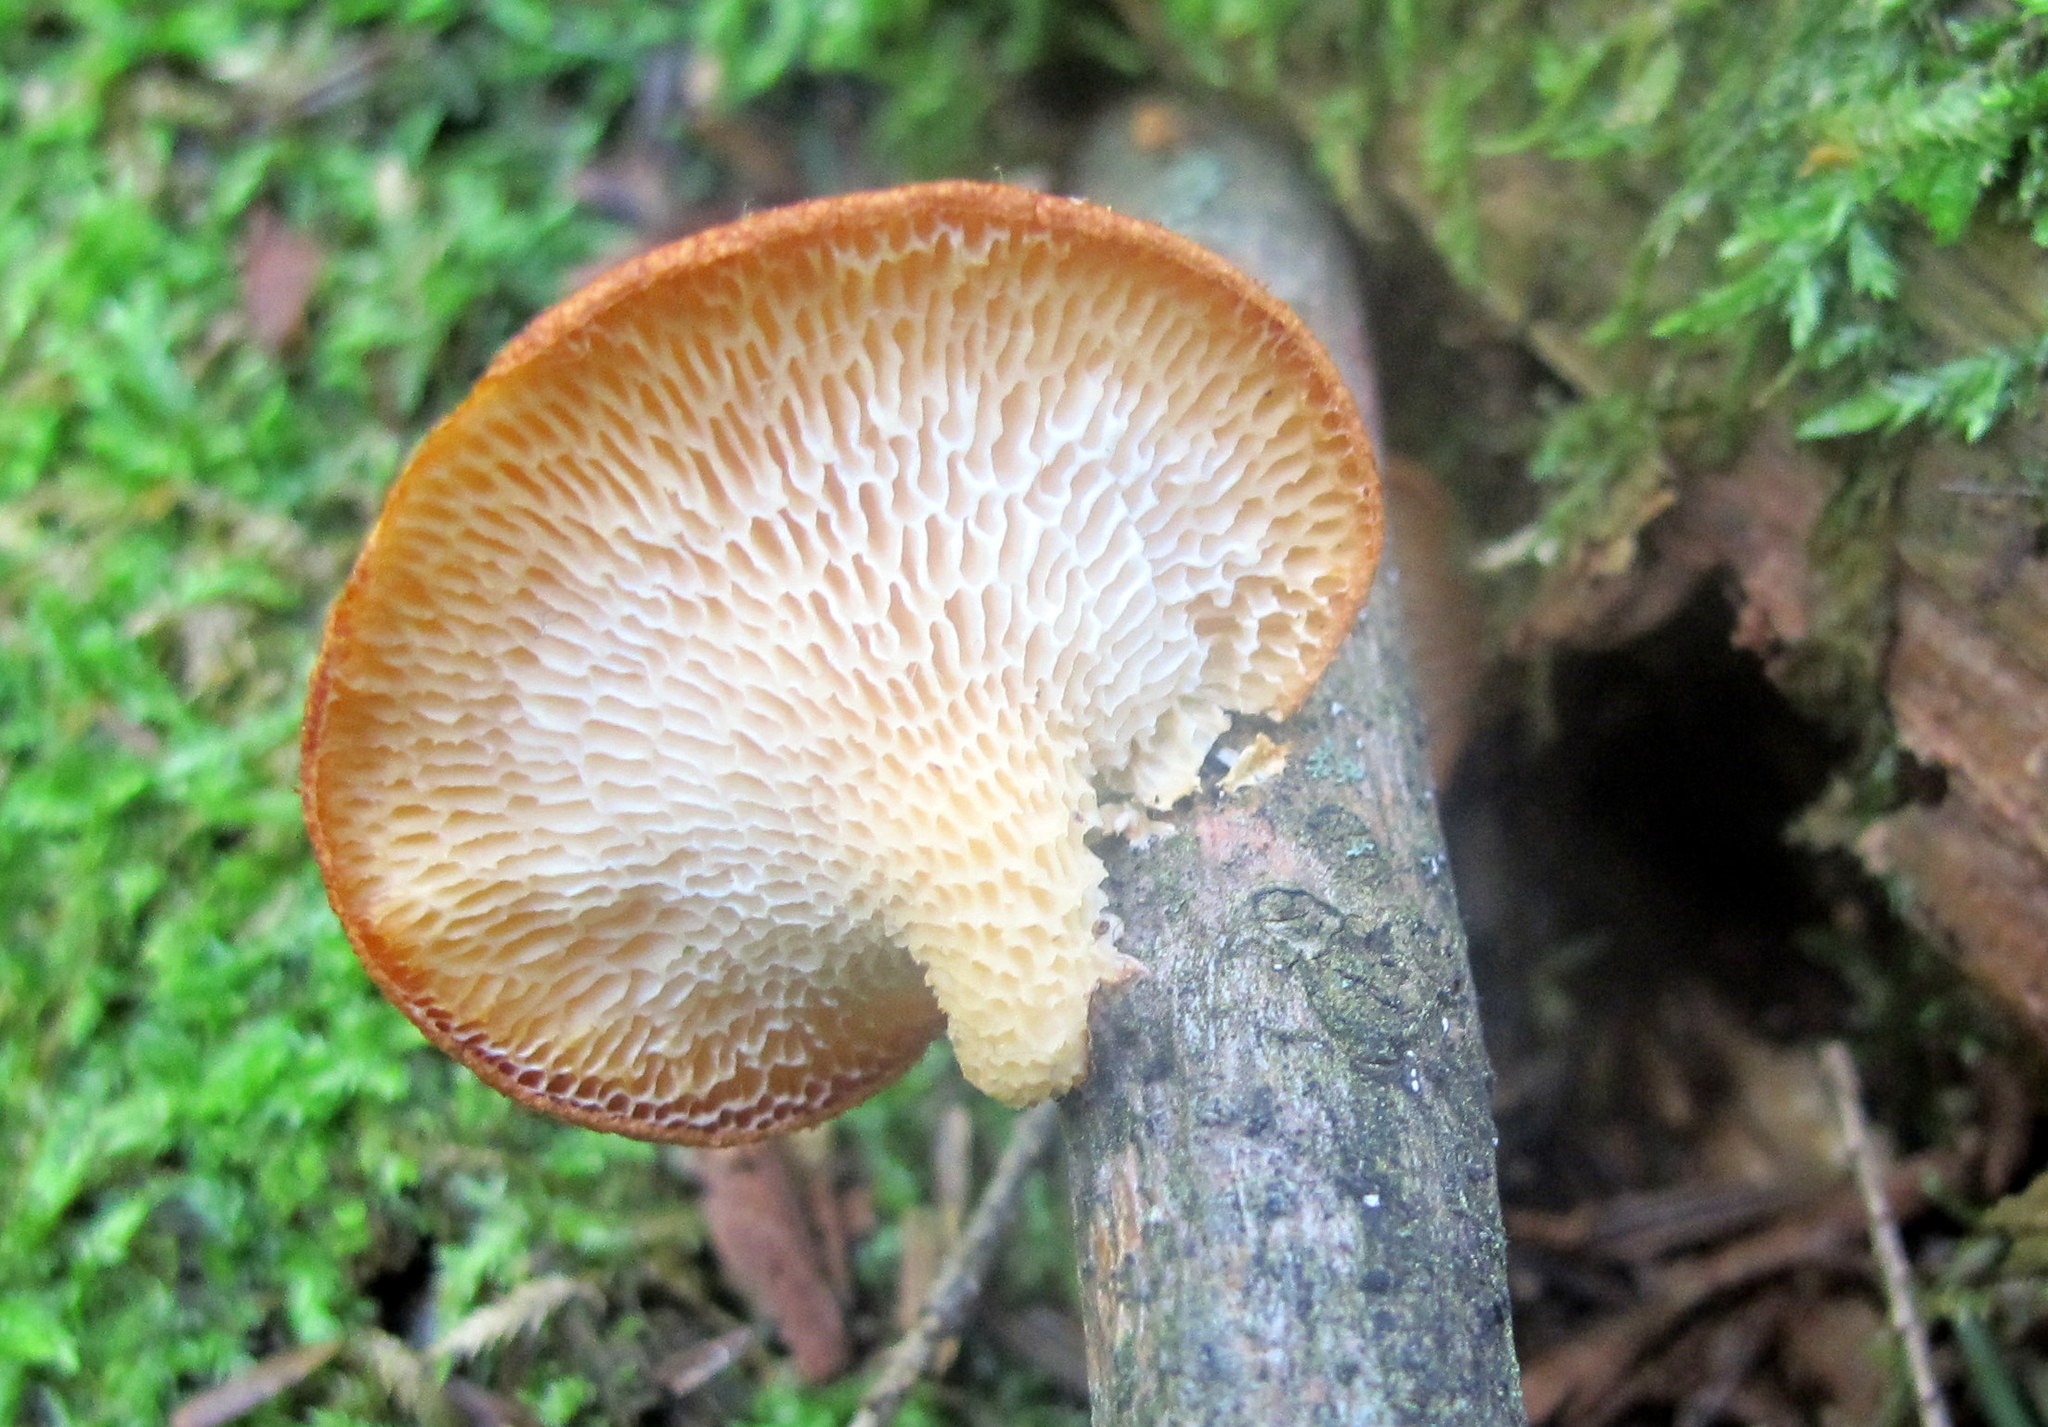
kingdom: Fungi
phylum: Basidiomycota
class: Agaricomycetes
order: Polyporales
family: Polyporaceae
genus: Neofavolus
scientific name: Neofavolus alveolaris
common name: Hexagonal-pored polypore
